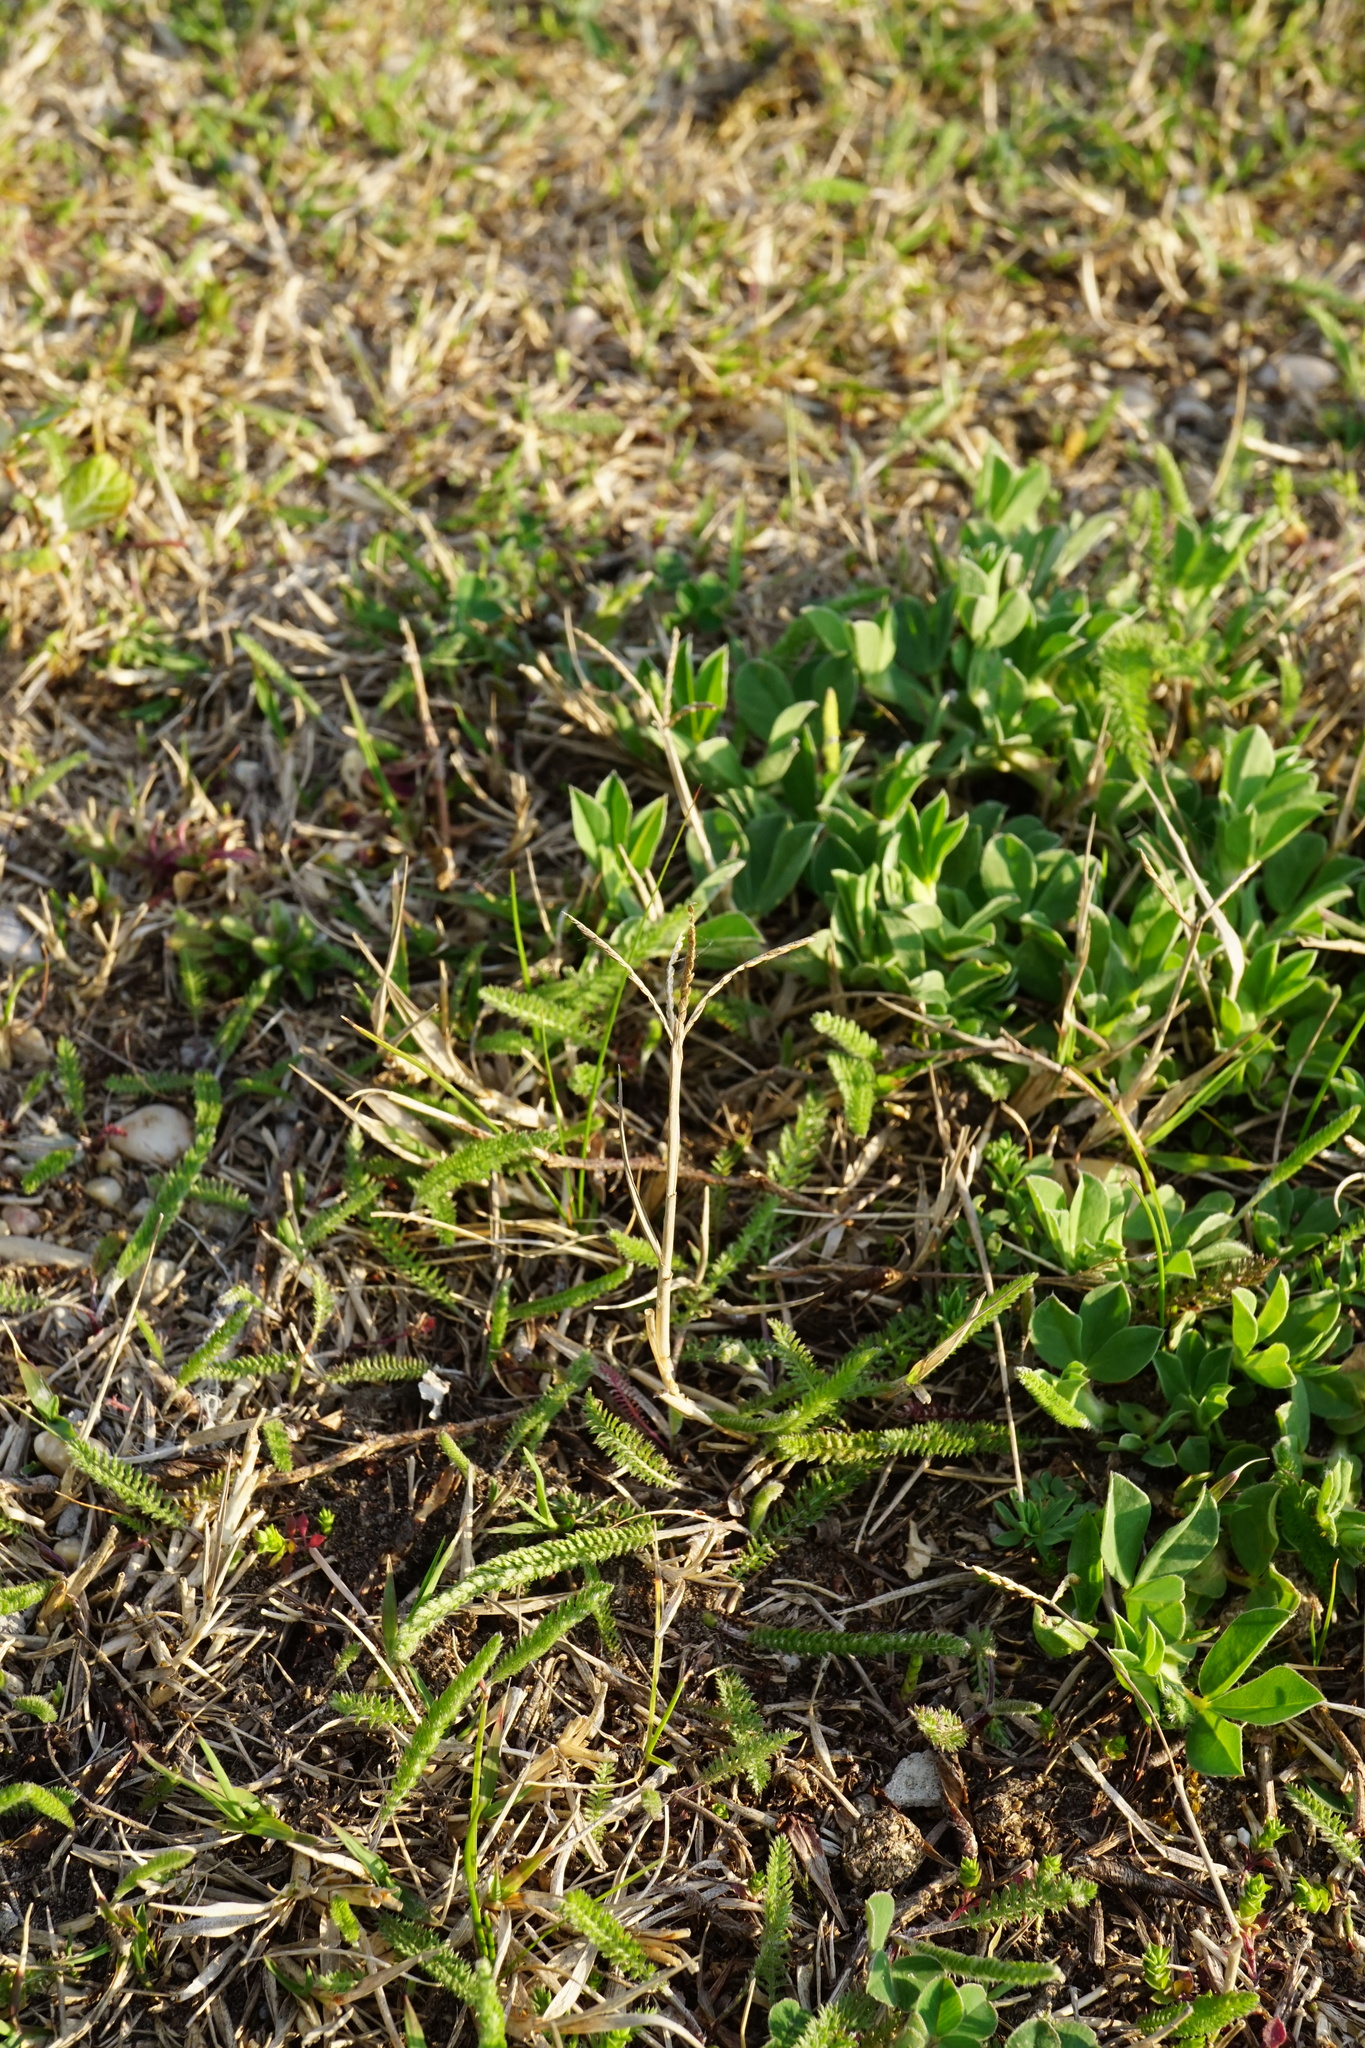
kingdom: Plantae
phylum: Tracheophyta
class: Liliopsida
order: Poales
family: Poaceae
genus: Cynodon
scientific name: Cynodon dactylon
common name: Bermuda grass
